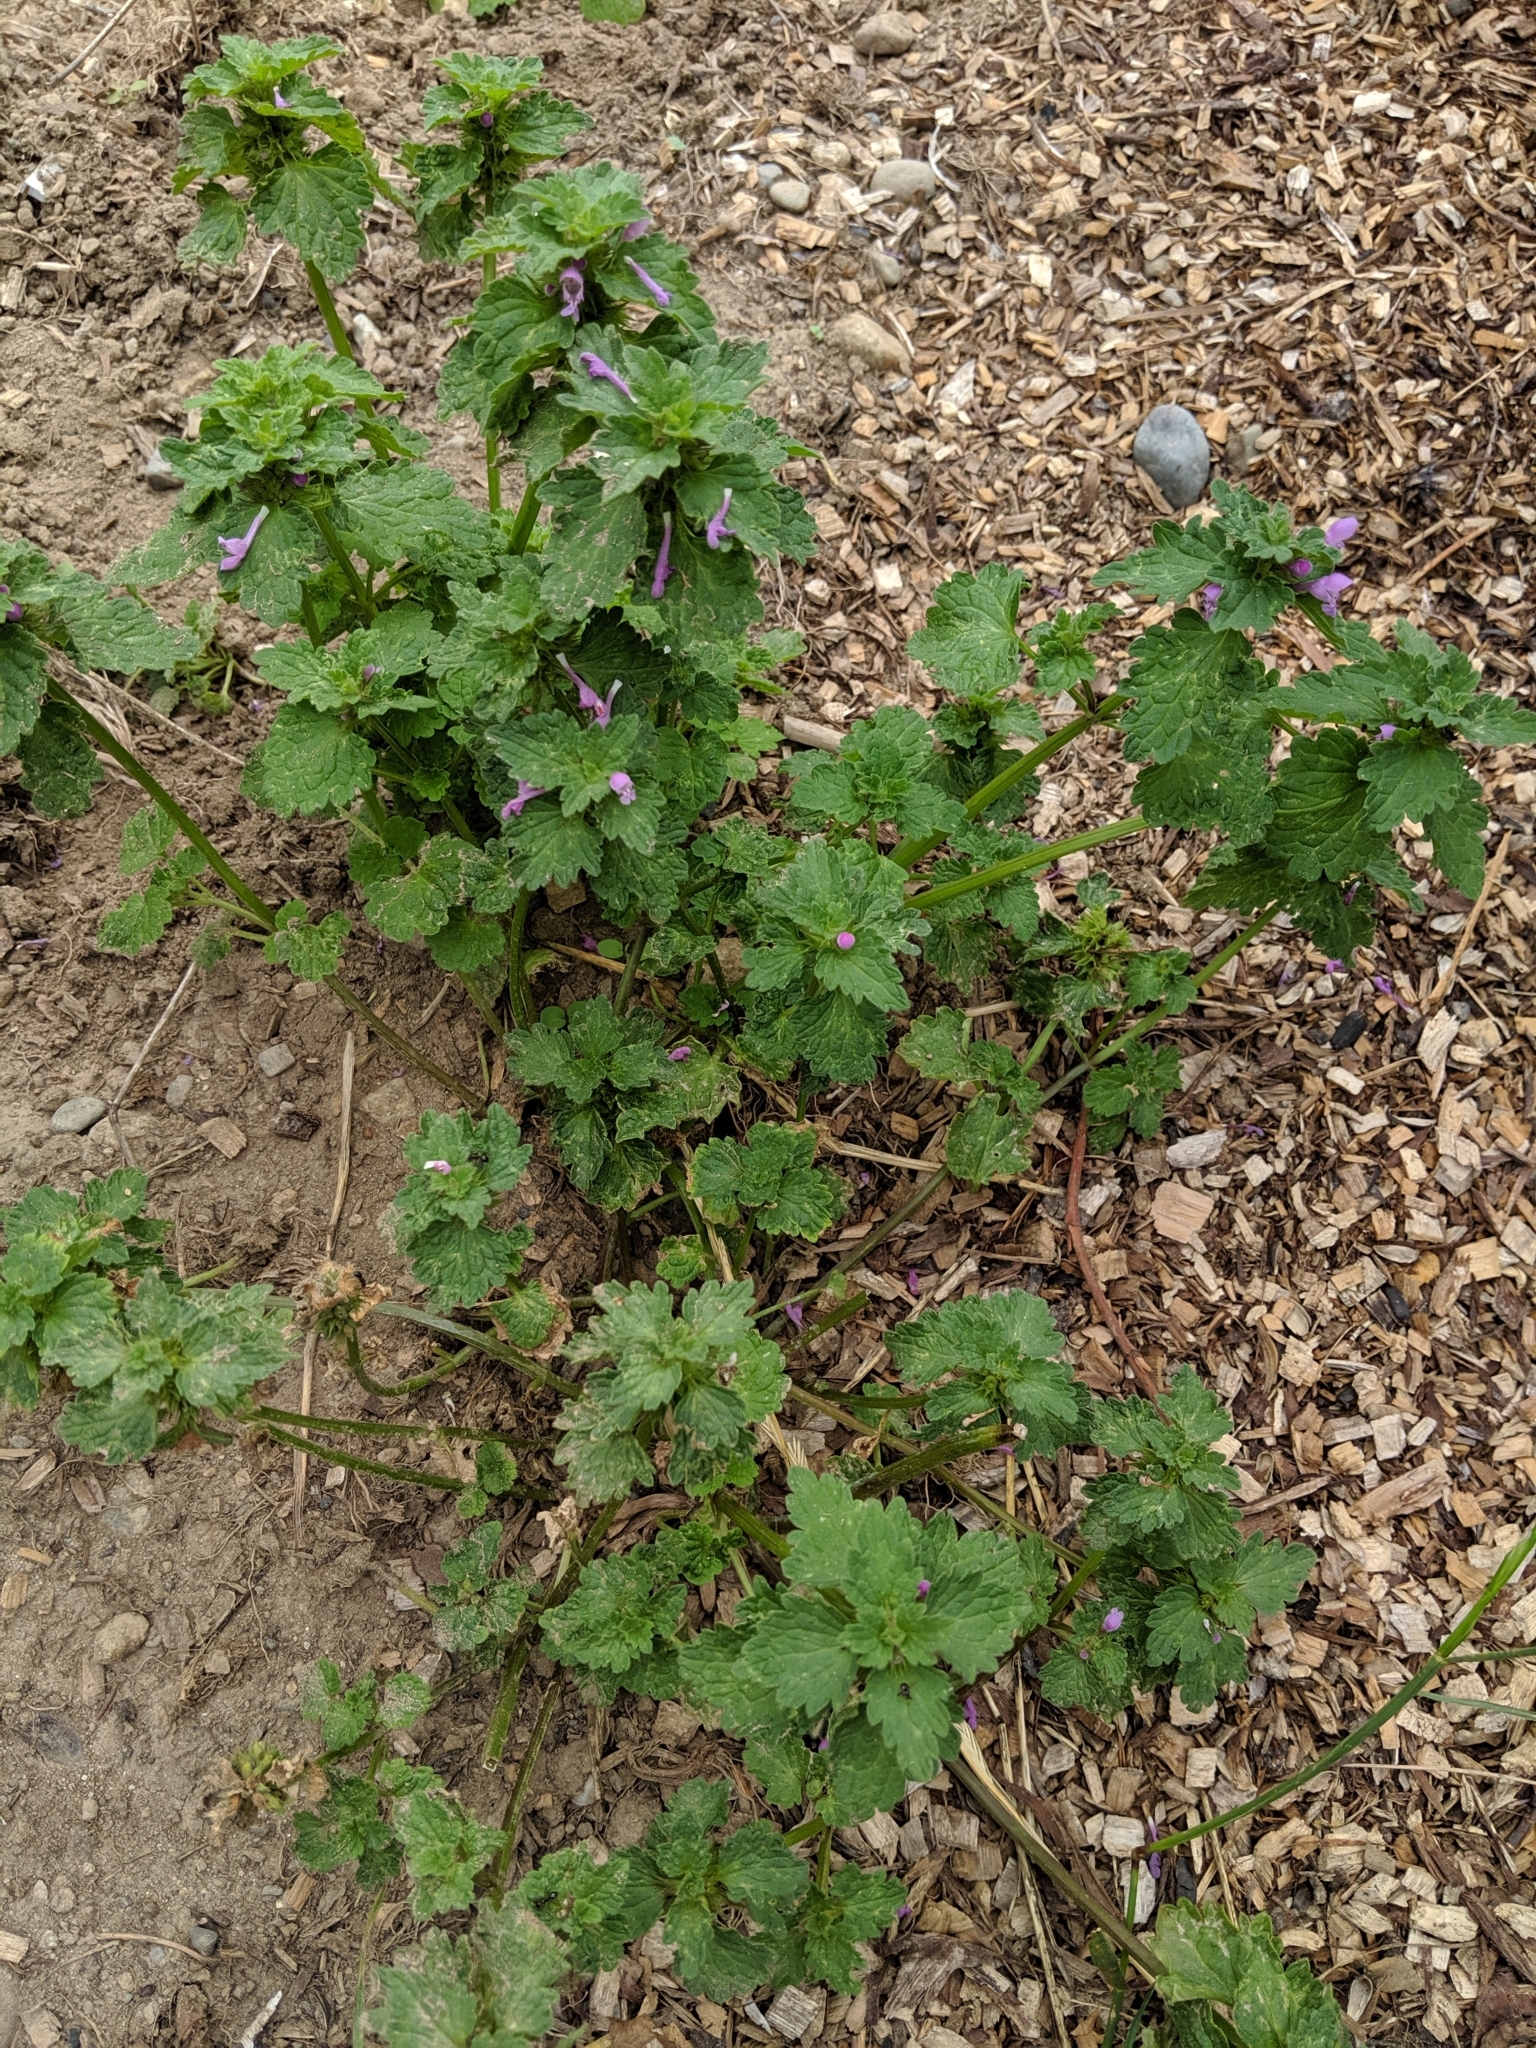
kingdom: Plantae
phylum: Tracheophyta
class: Magnoliopsida
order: Lamiales
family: Lamiaceae
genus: Lamium
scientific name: Lamium purpureum
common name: Red dead-nettle
